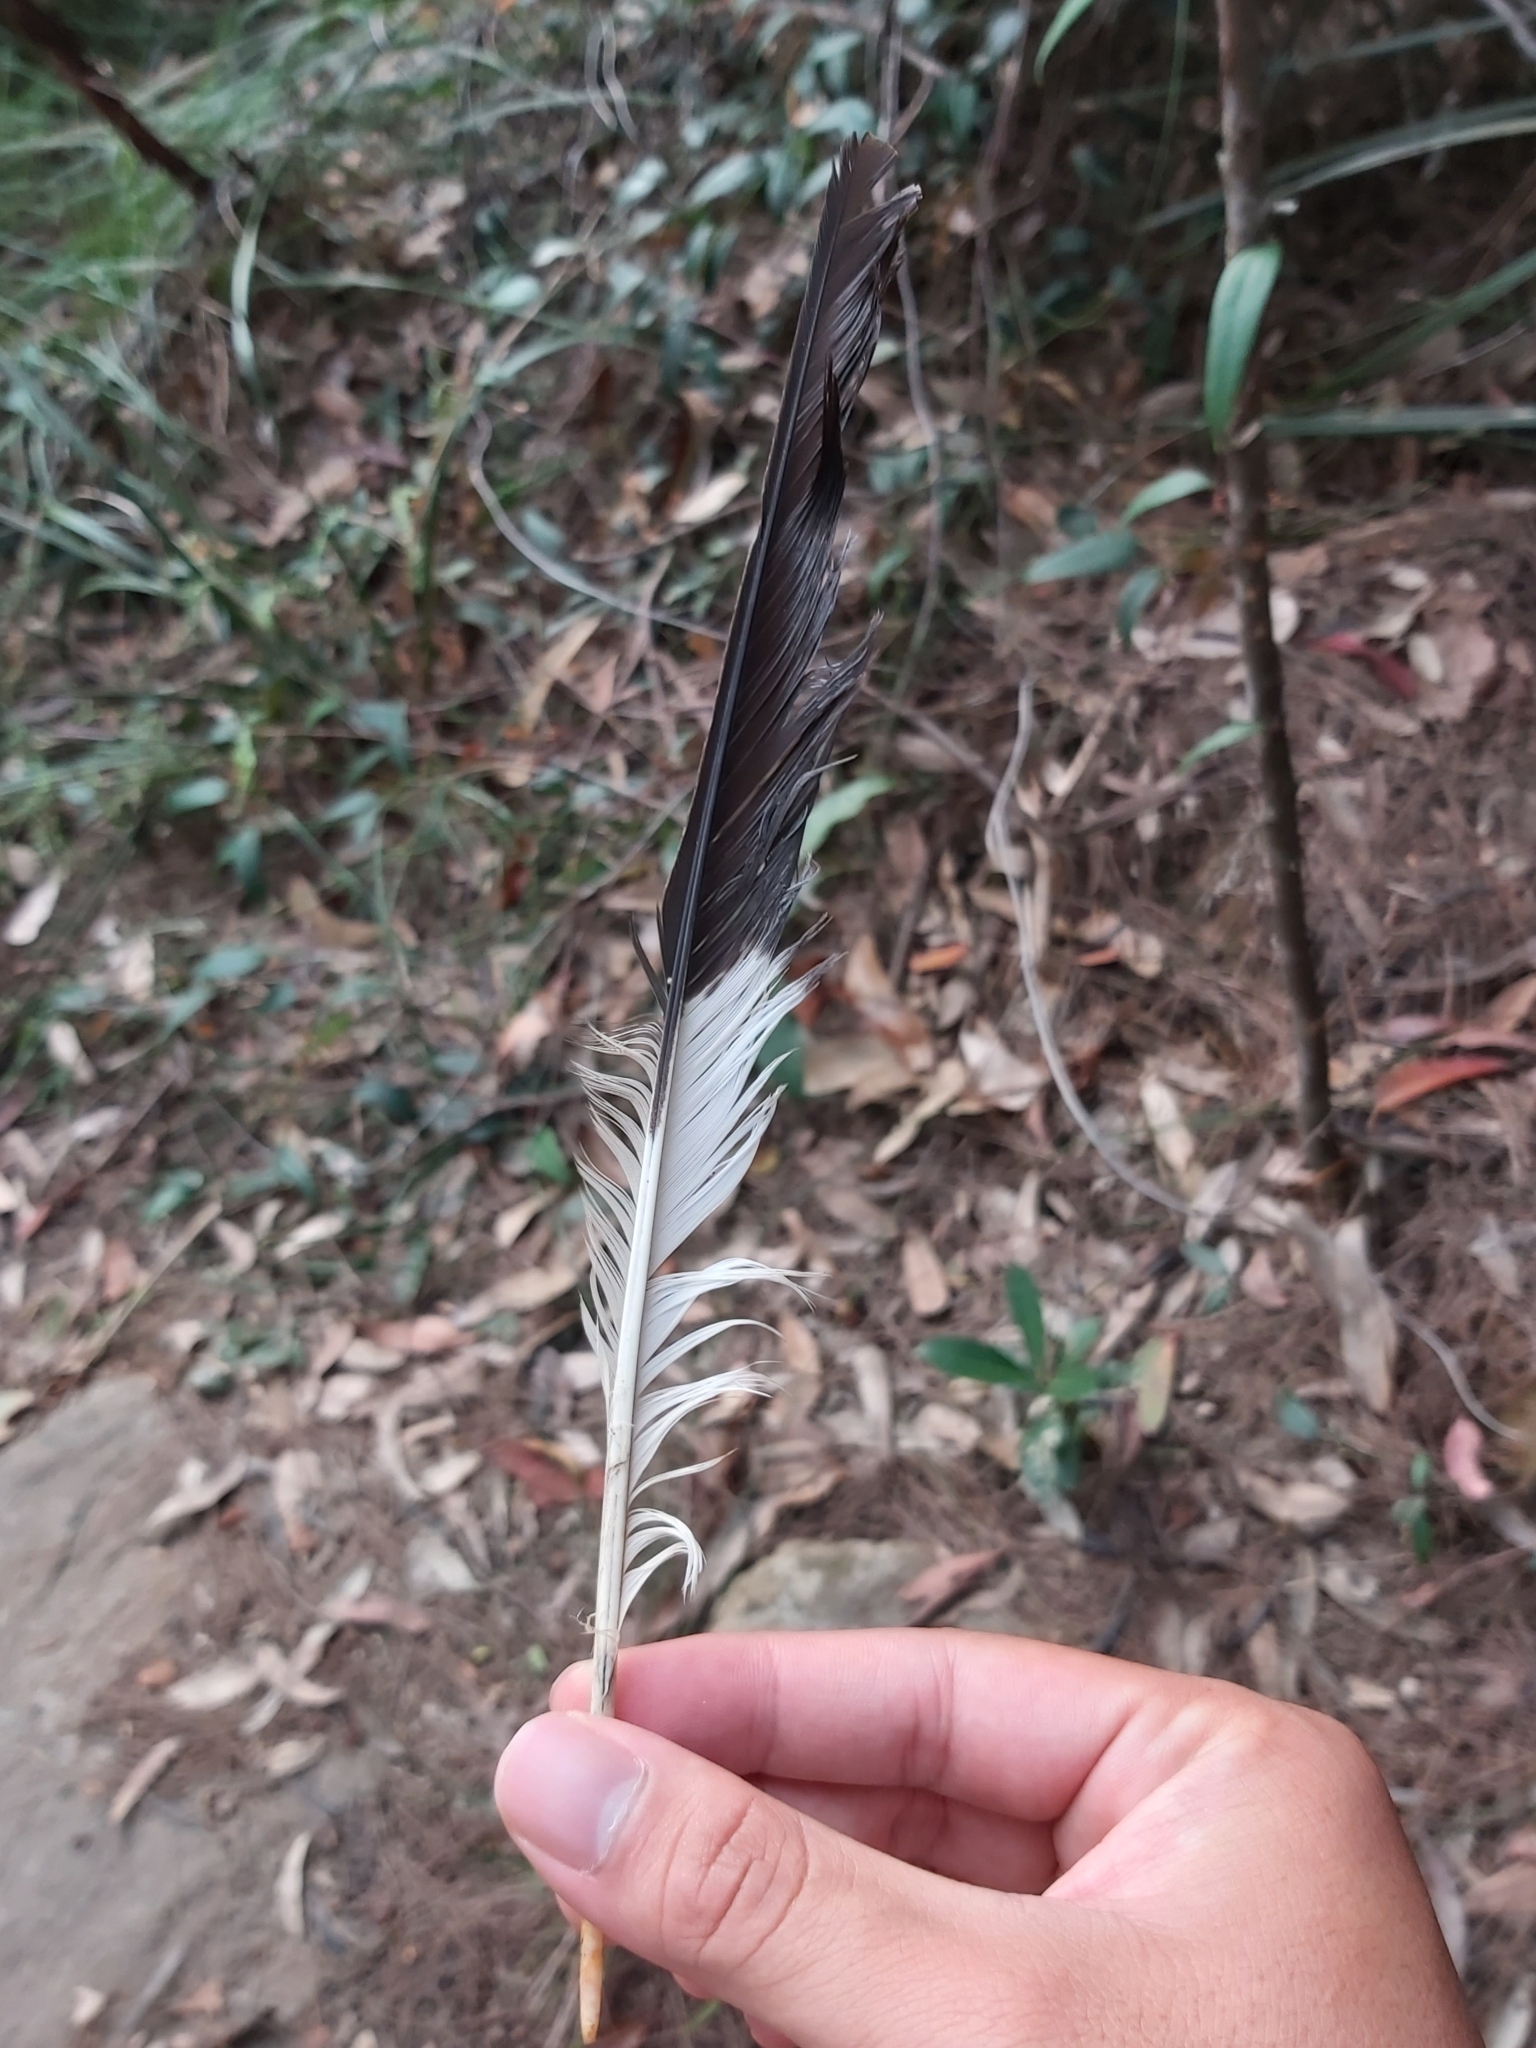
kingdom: Animalia
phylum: Chordata
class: Aves
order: Passeriformes
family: Cracticidae
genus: Strepera
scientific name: Strepera graculina
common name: Pied currawong
